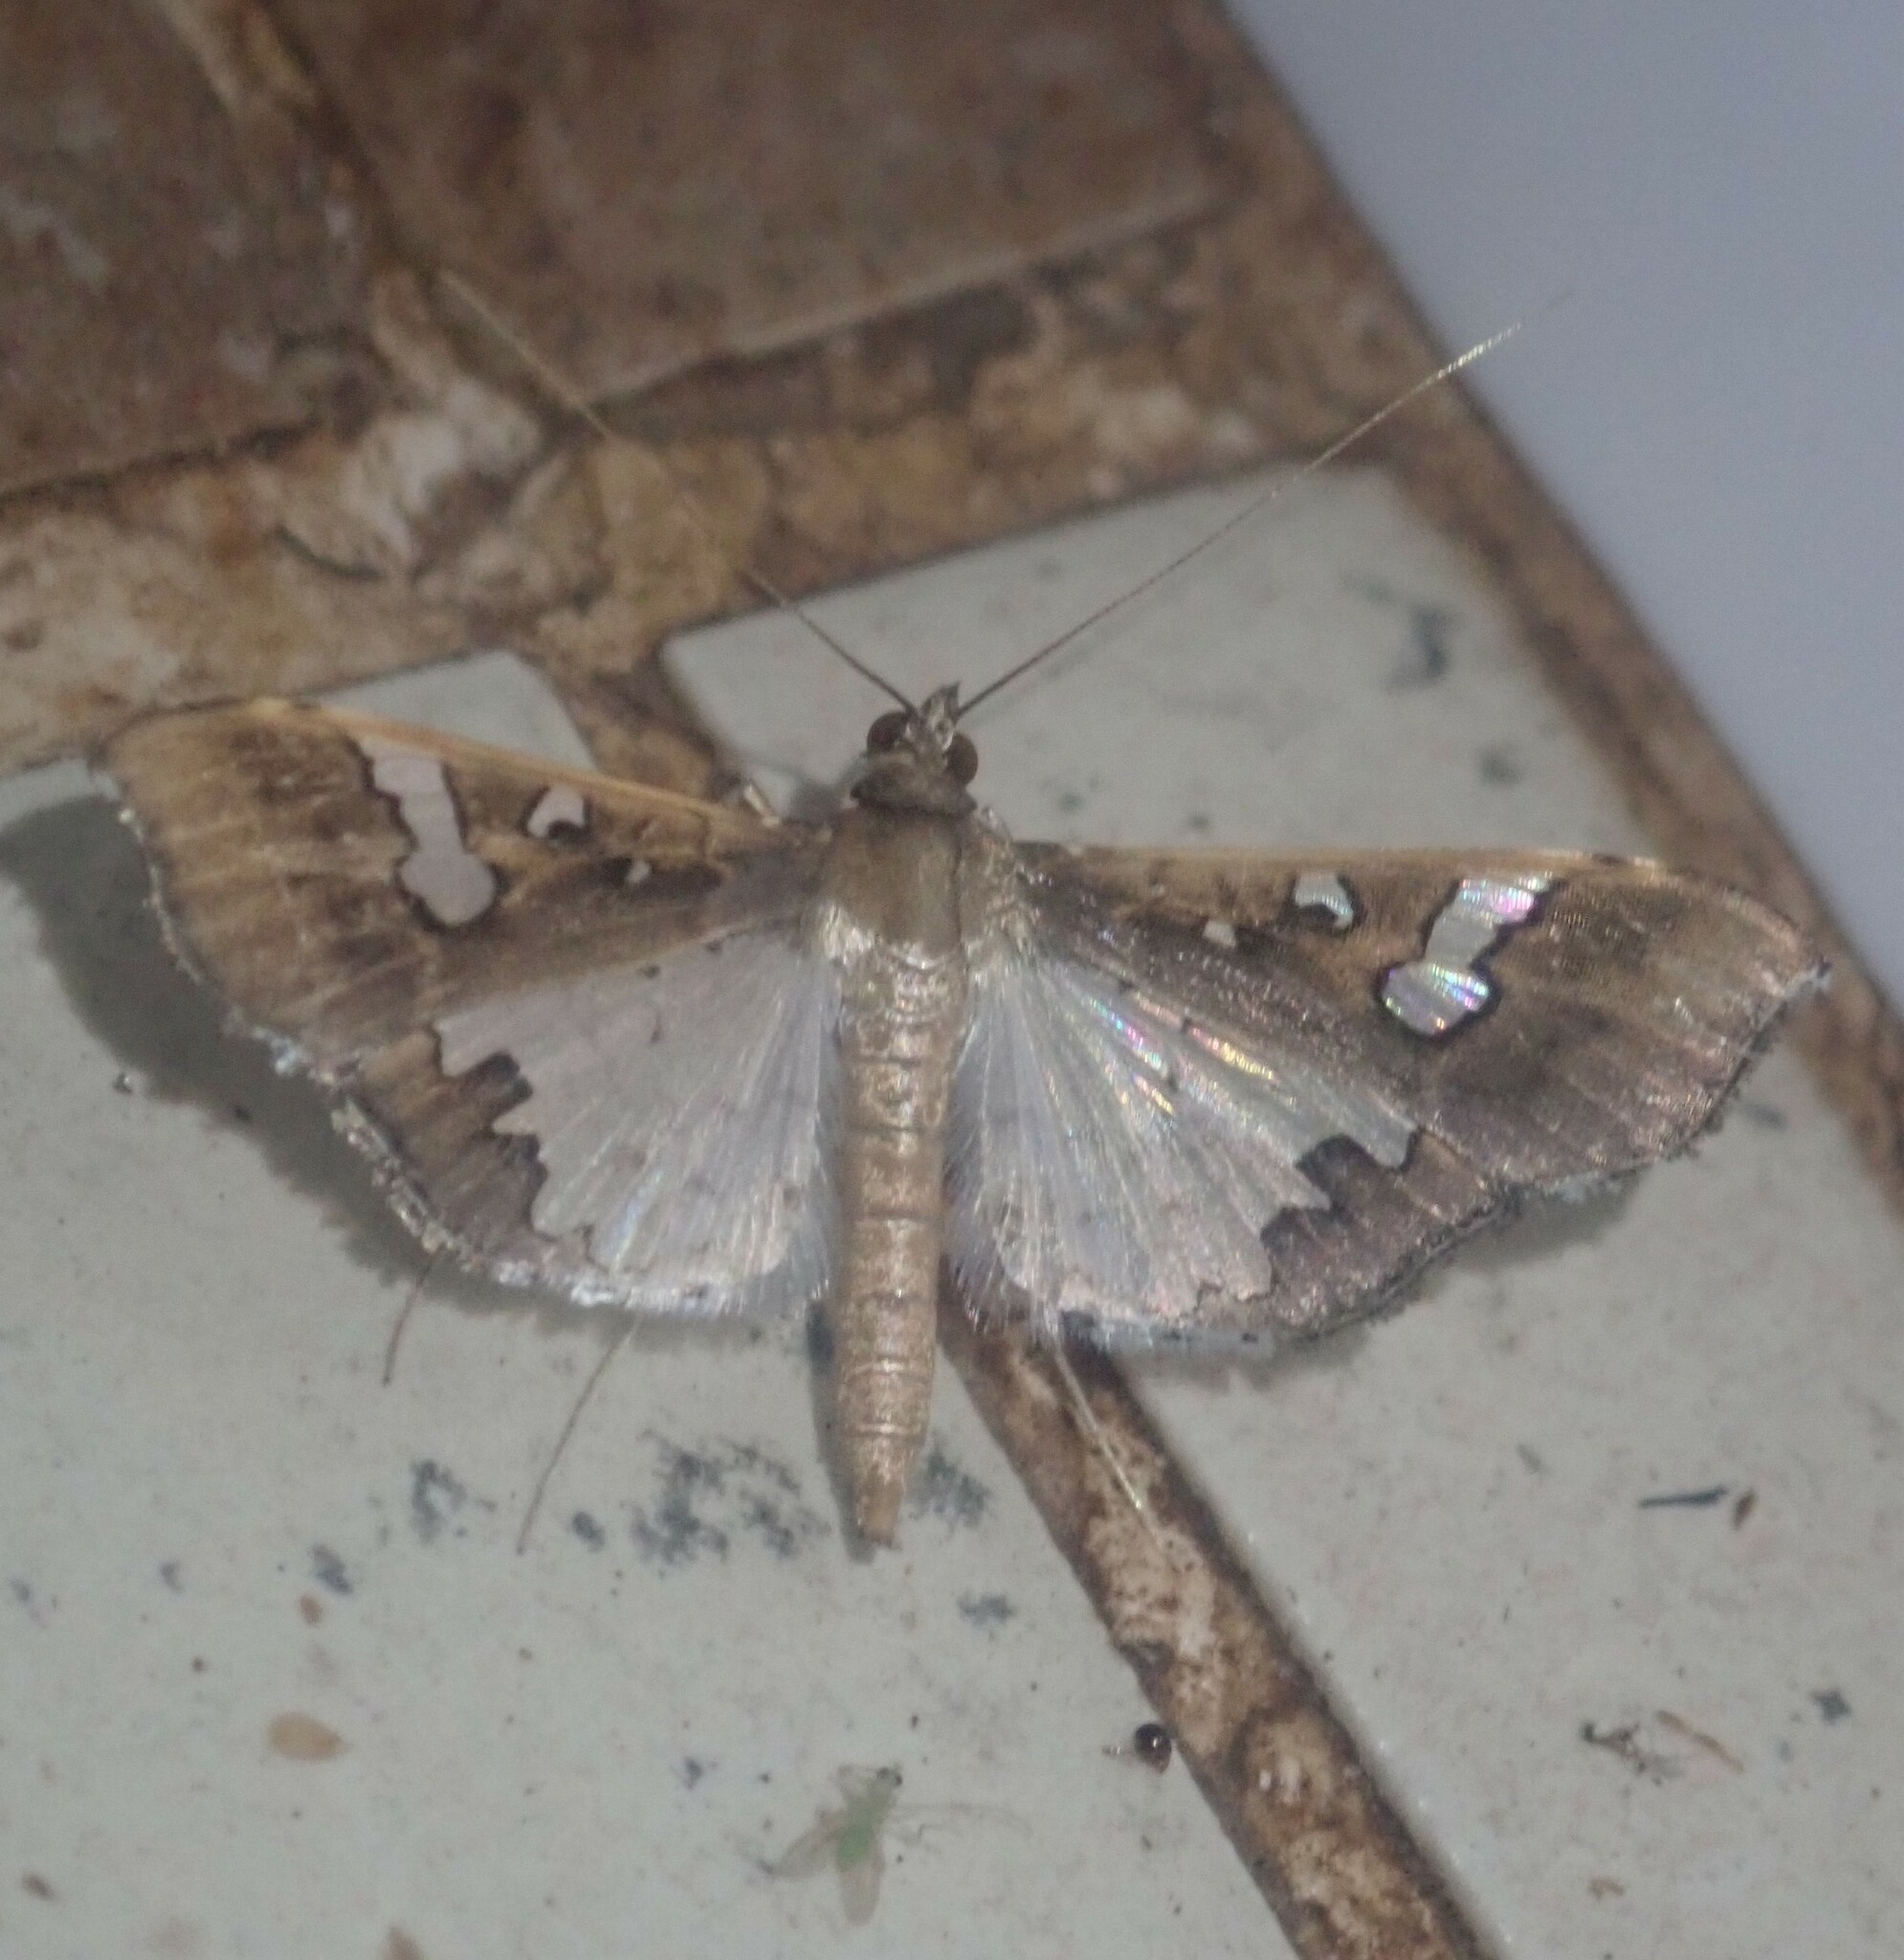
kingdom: Animalia
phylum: Arthropoda
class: Insecta
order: Lepidoptera
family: Crambidae
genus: Maruca
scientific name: Maruca vitrata
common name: Maruca pod borer
